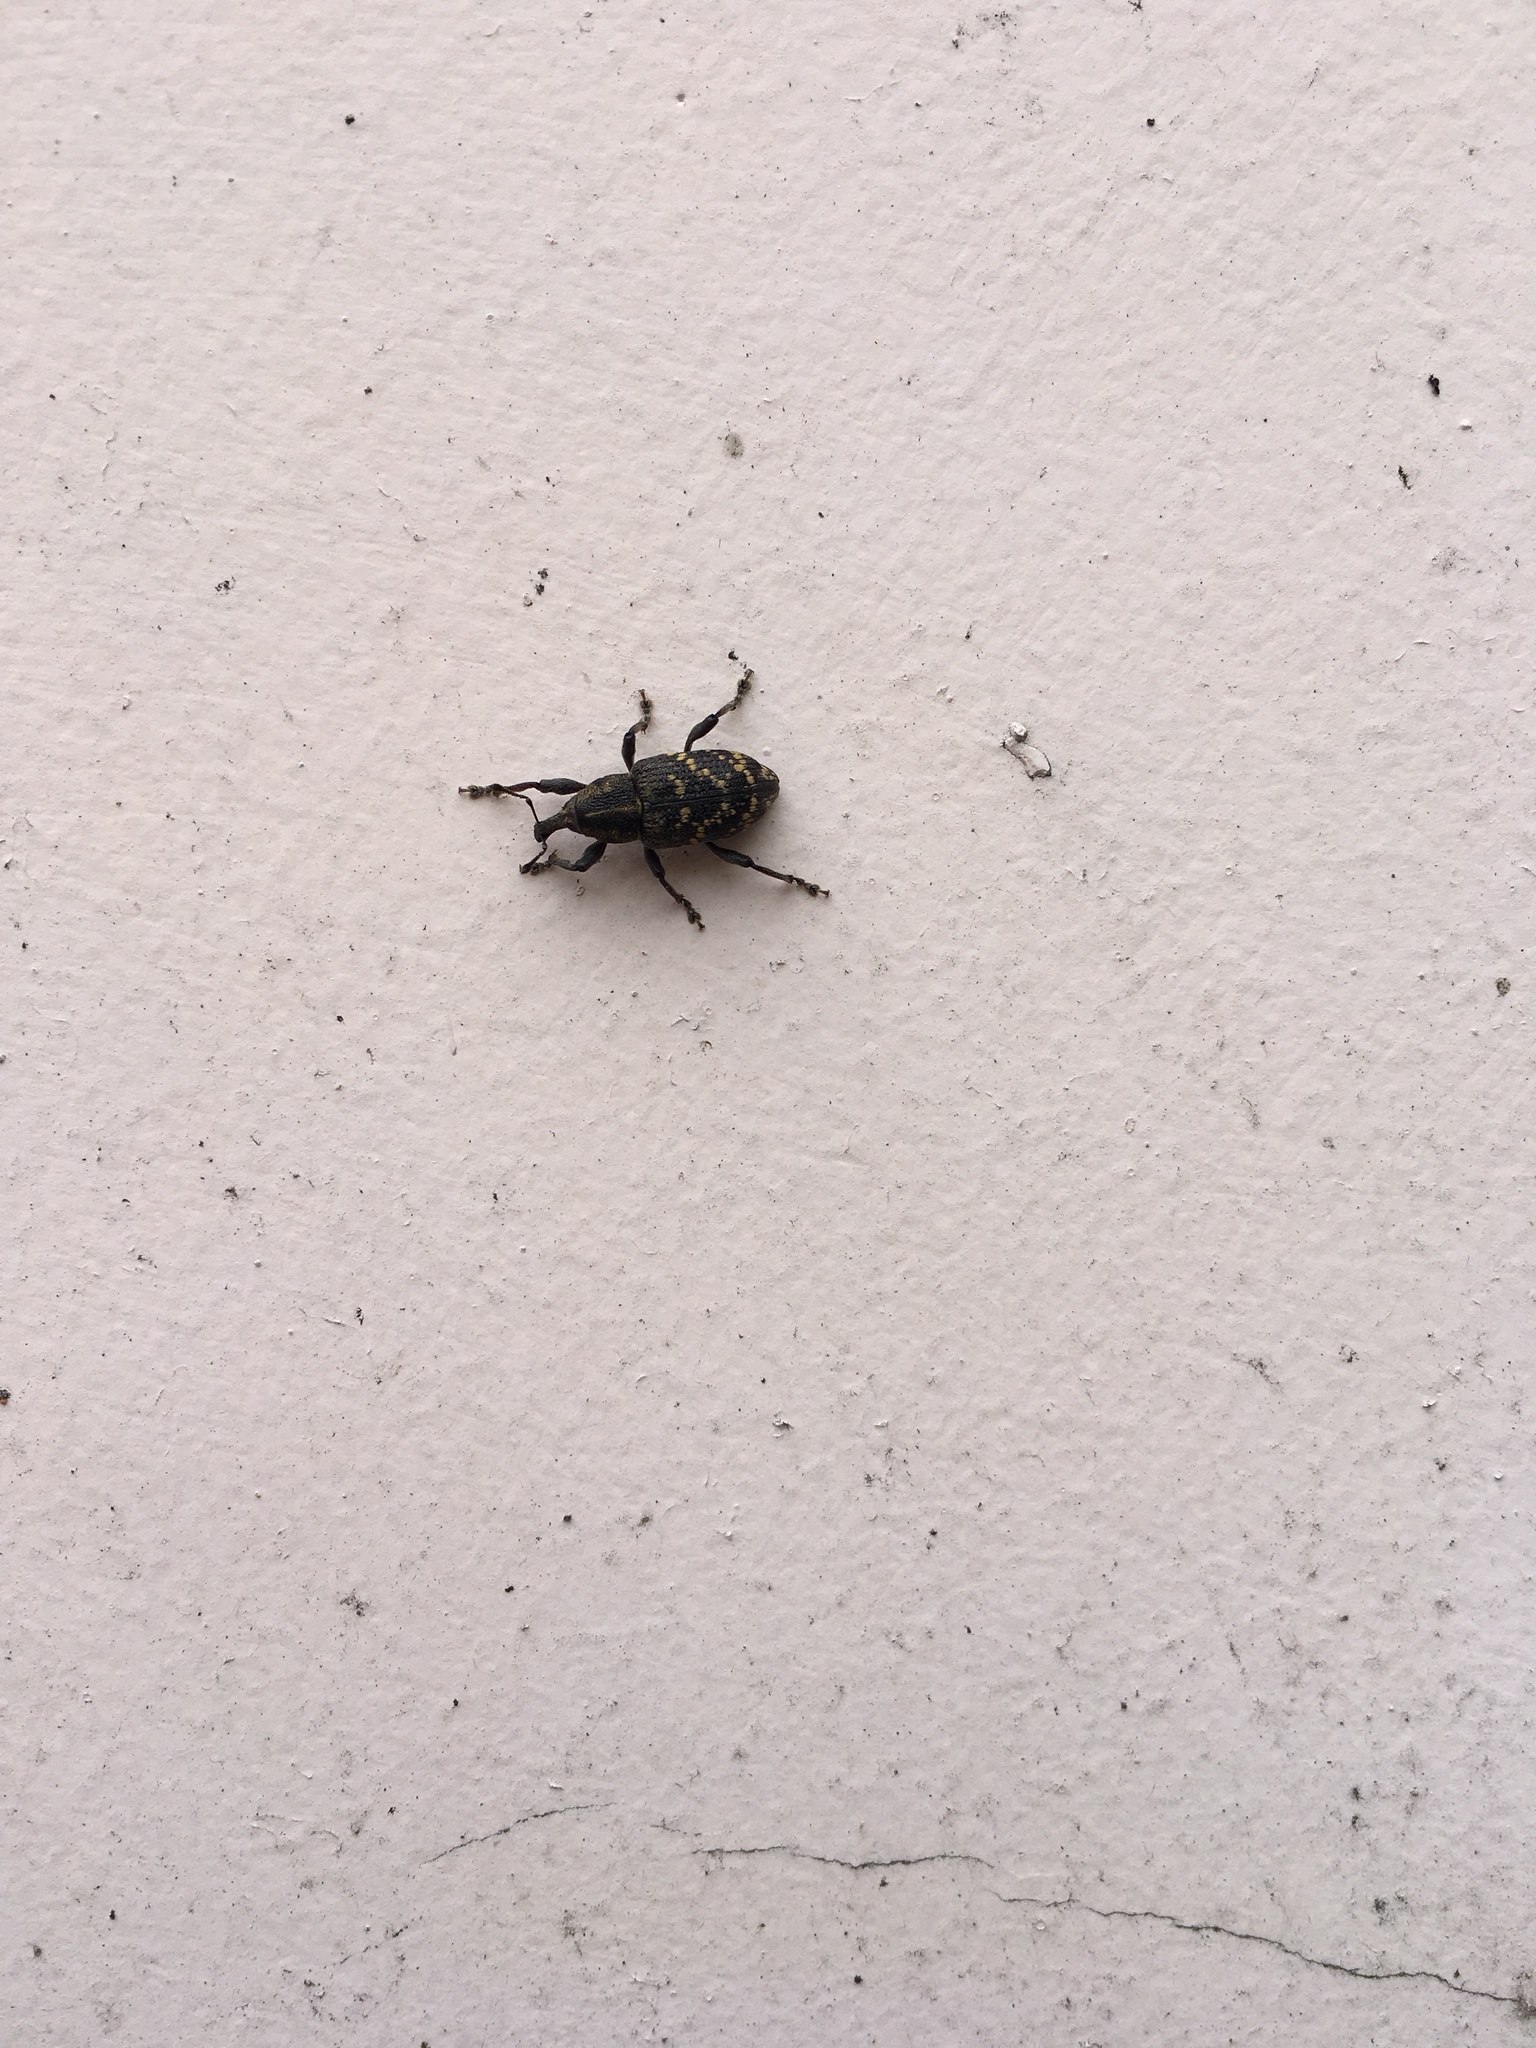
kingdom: Animalia
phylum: Arthropoda
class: Insecta
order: Coleoptera
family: Curculionidae
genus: Hylobius
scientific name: Hylobius abietis
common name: Large pine weevil
